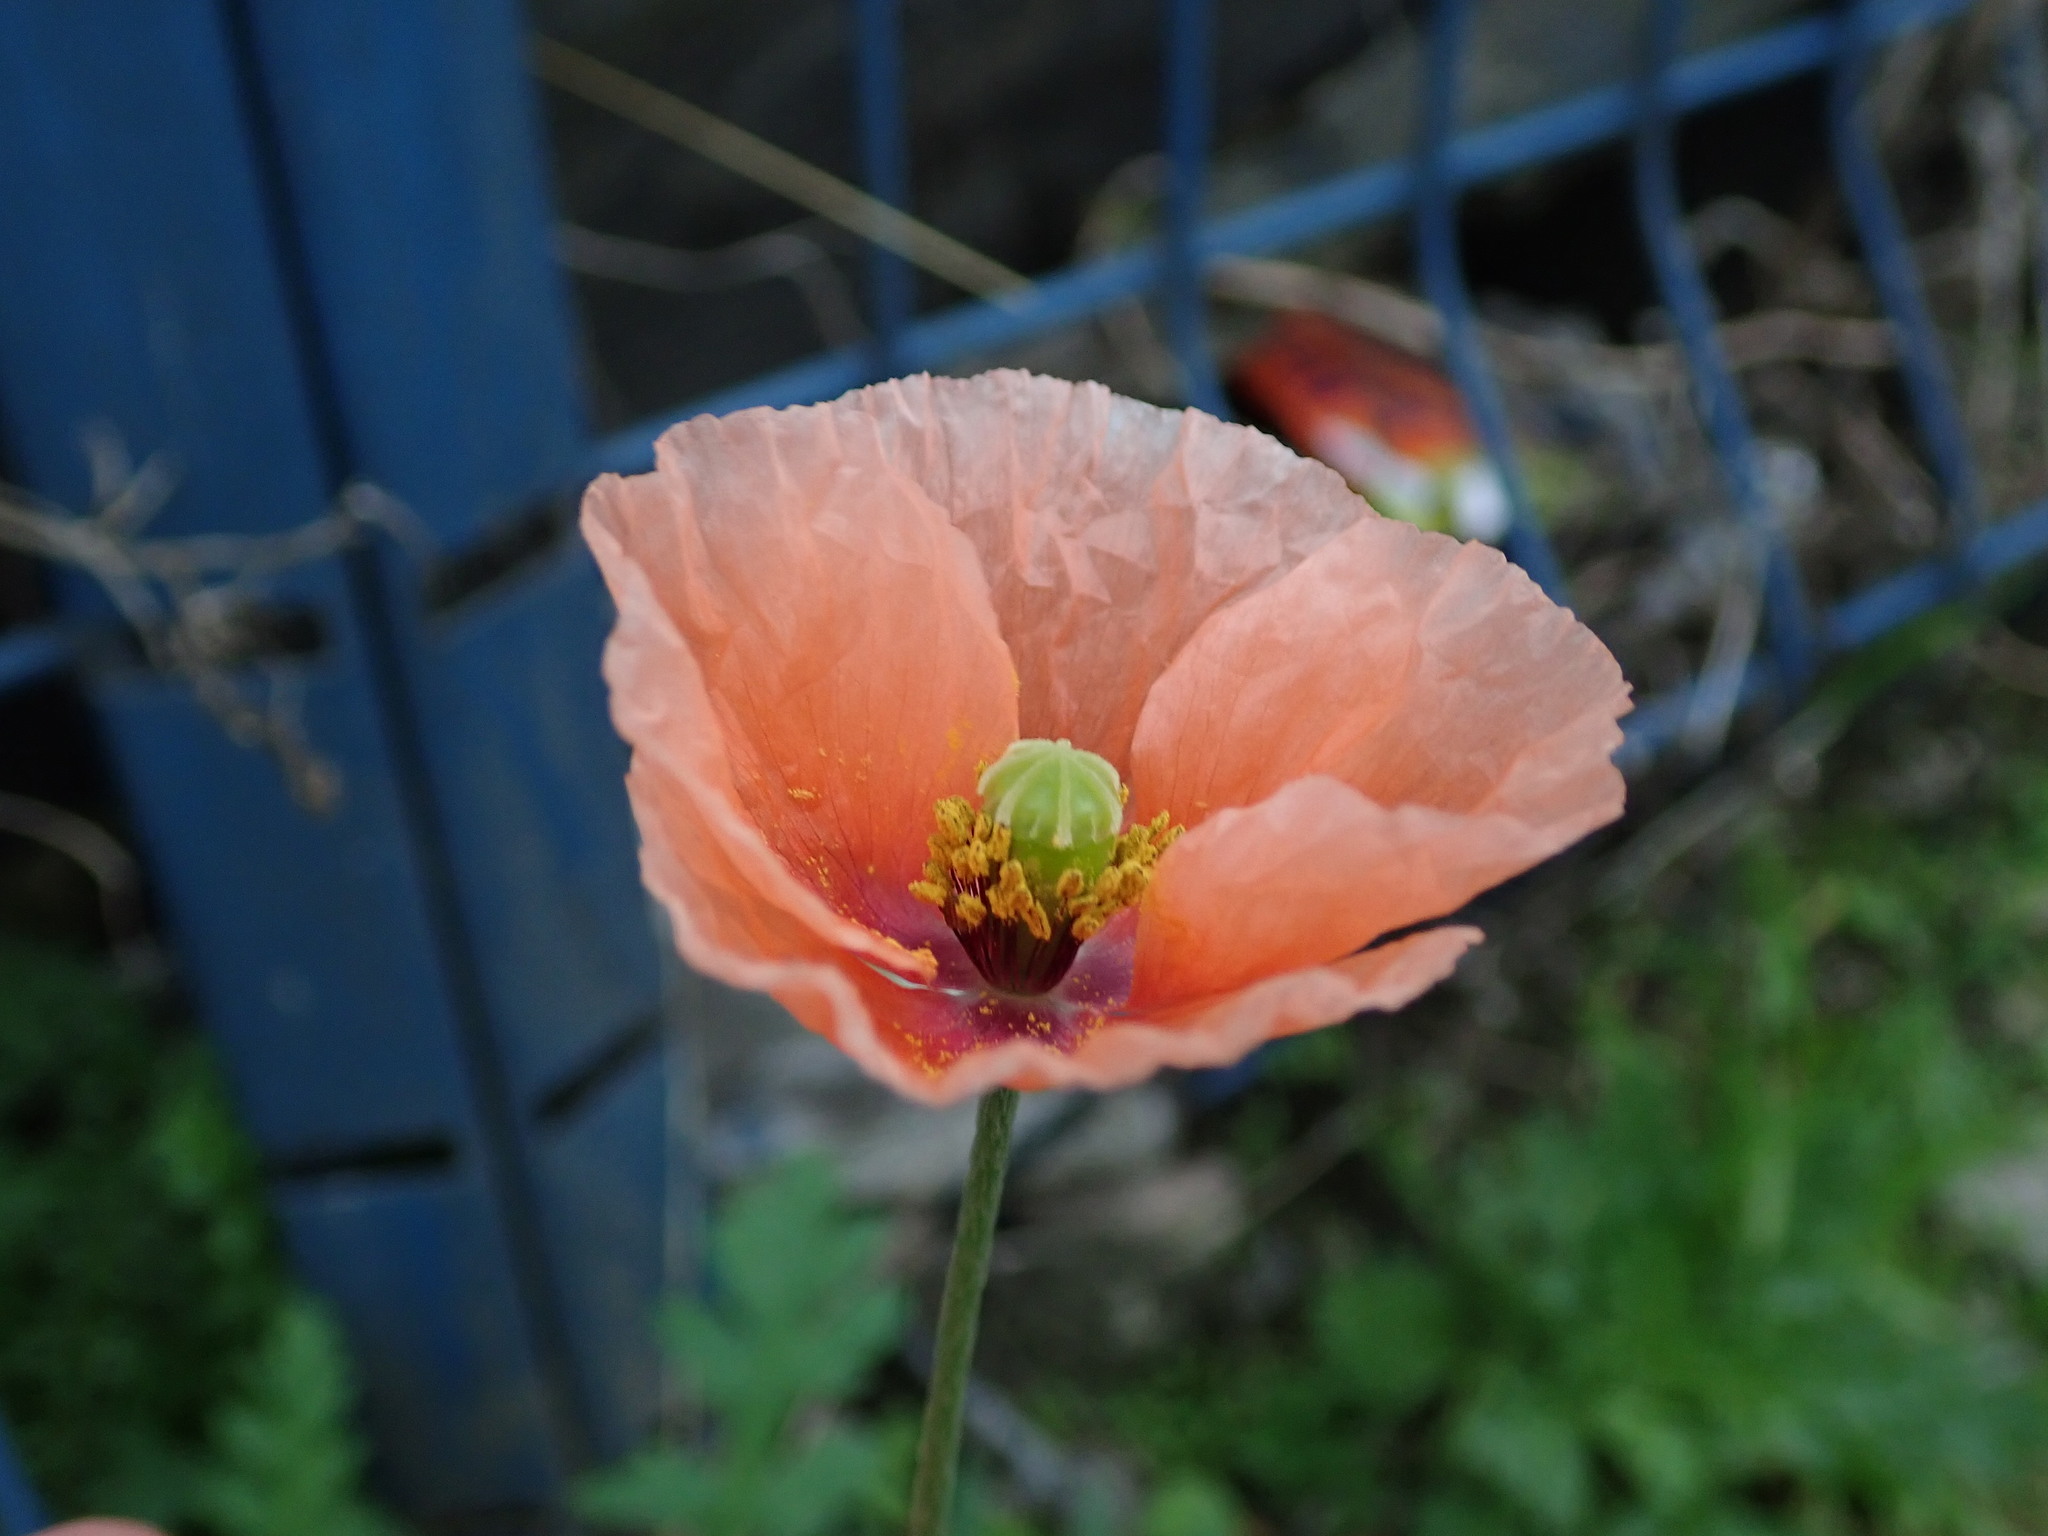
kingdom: Plantae
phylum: Tracheophyta
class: Magnoliopsida
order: Ranunculales
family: Papaveraceae
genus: Papaver
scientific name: Papaver rhoeas
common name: Corn poppy
